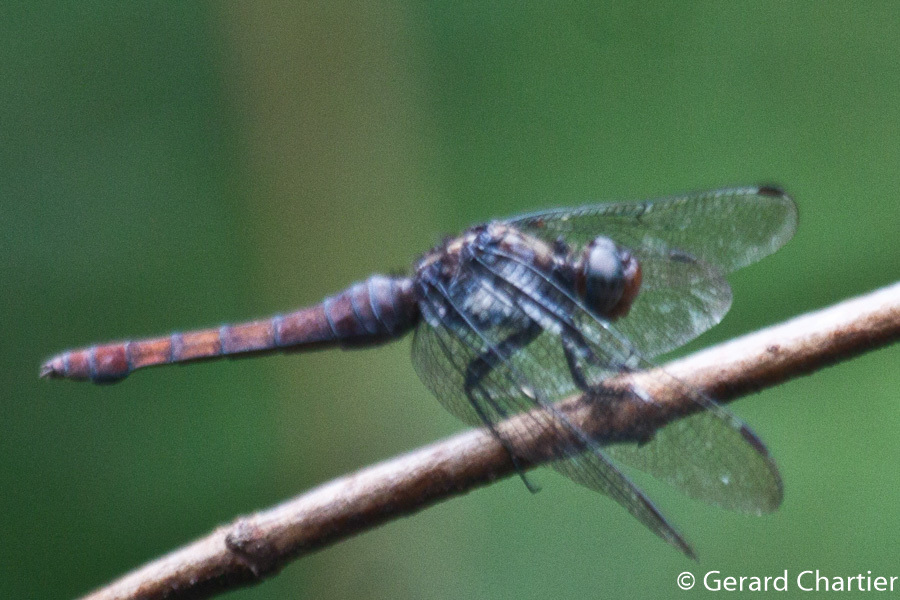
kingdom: Animalia
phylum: Arthropoda
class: Insecta
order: Odonata
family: Libellulidae
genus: Orthetrum
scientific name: Orthetrum chrysis
